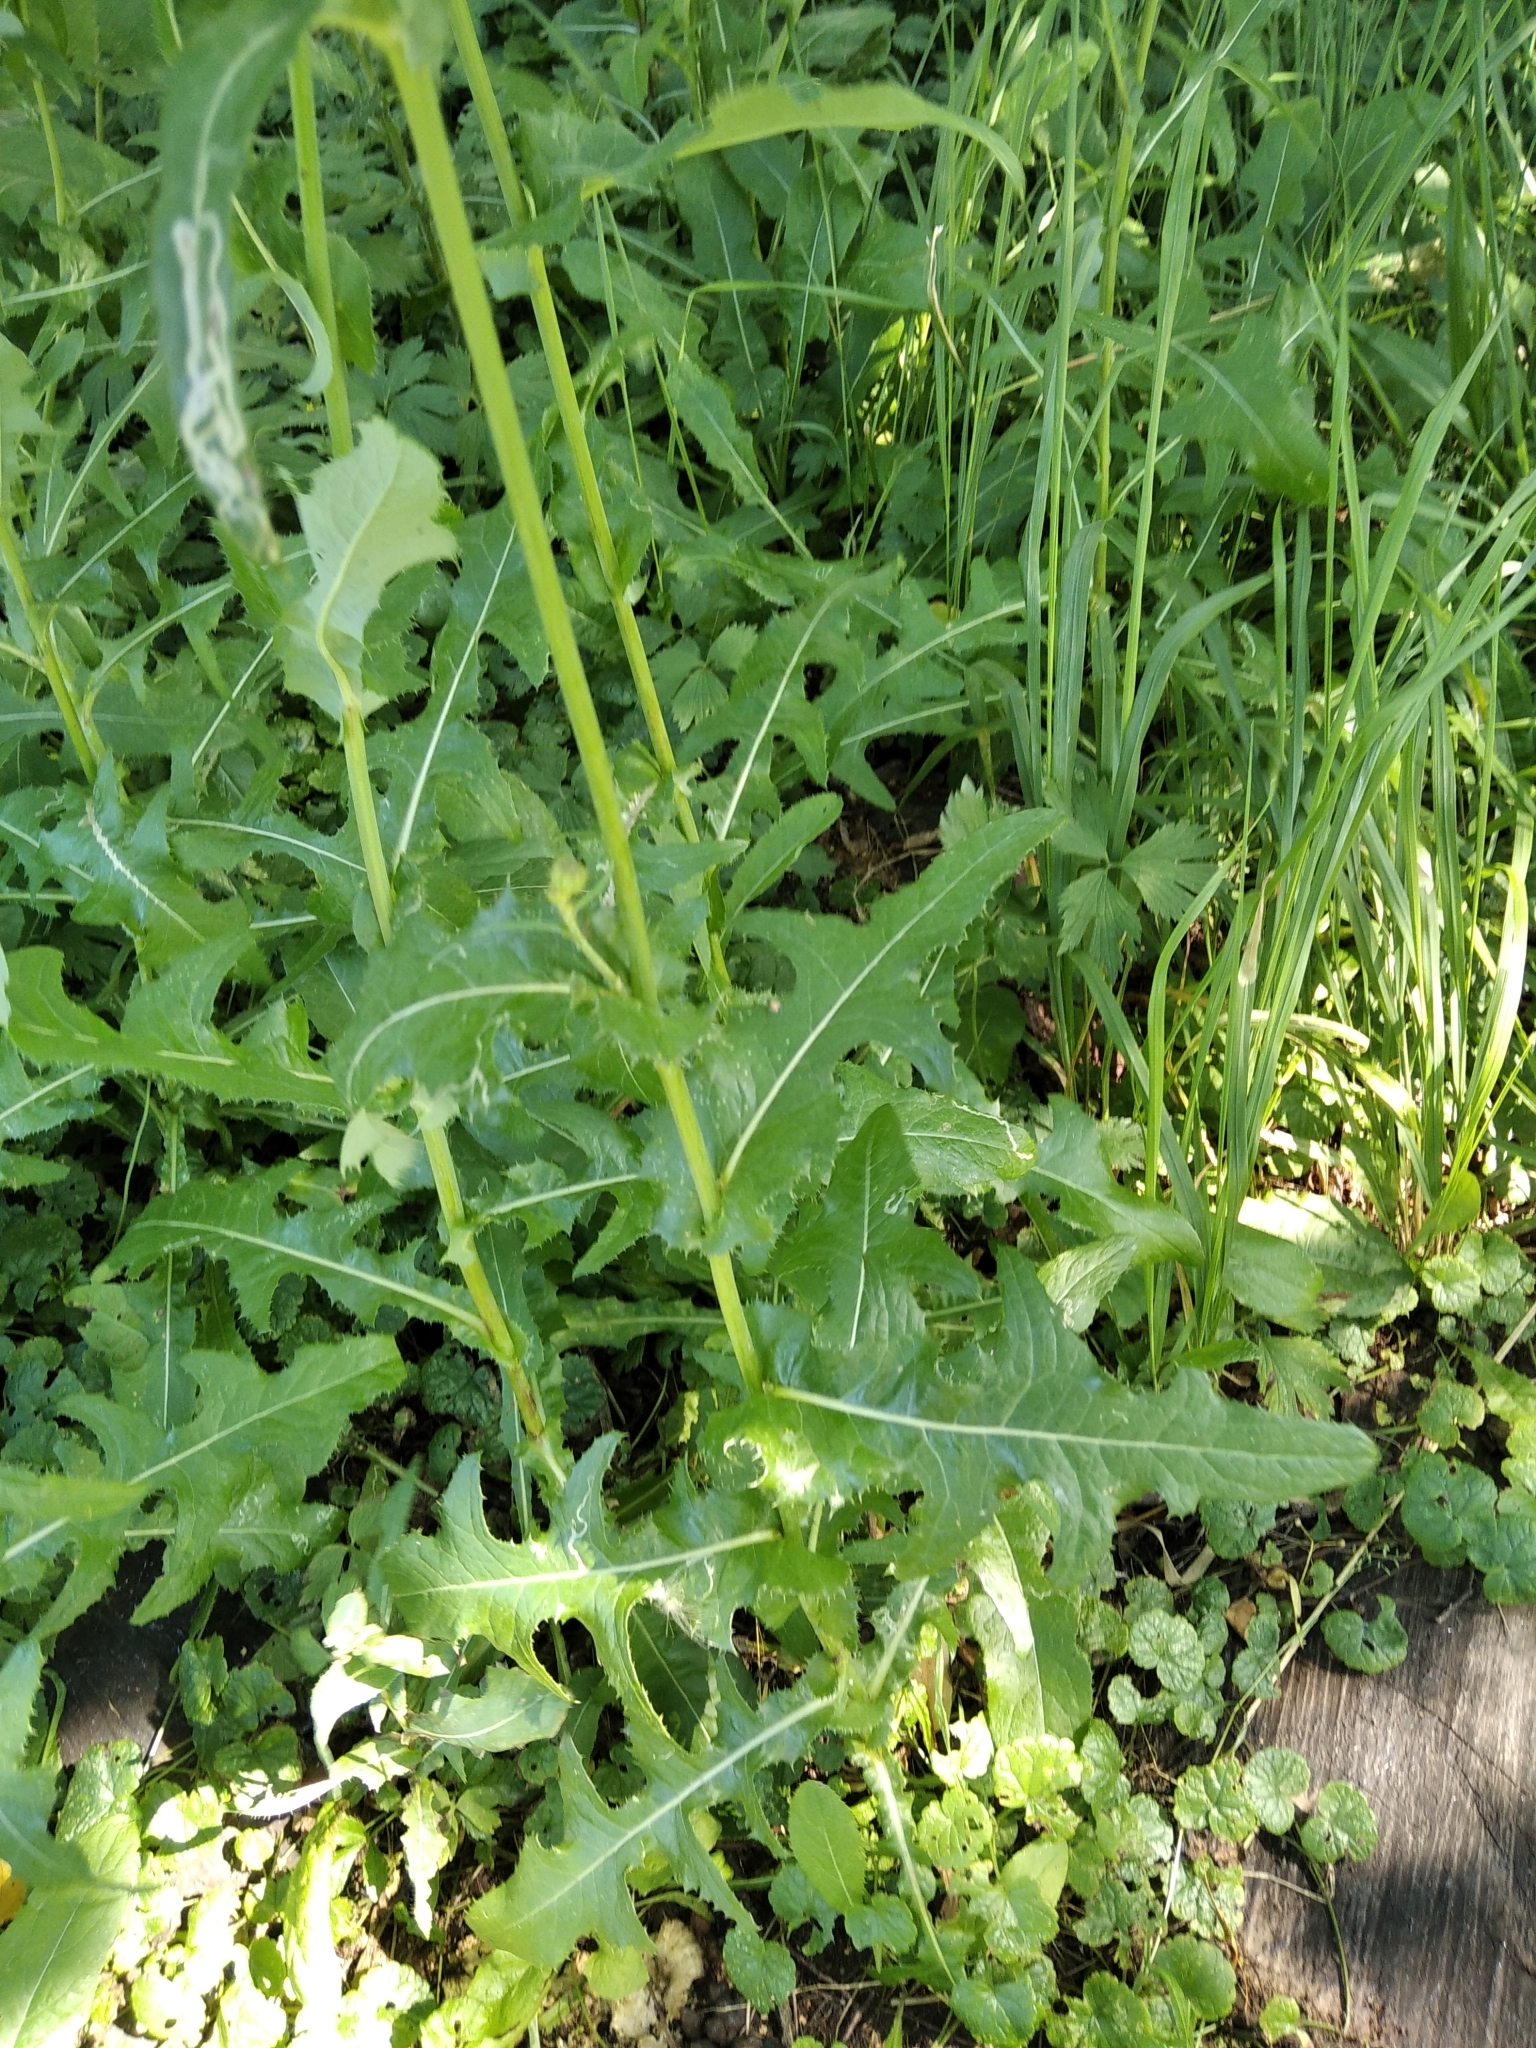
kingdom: Plantae
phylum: Tracheophyta
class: Magnoliopsida
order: Asterales
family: Asteraceae
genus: Sonchus
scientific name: Sonchus arvensis
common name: Perennial sow-thistle
